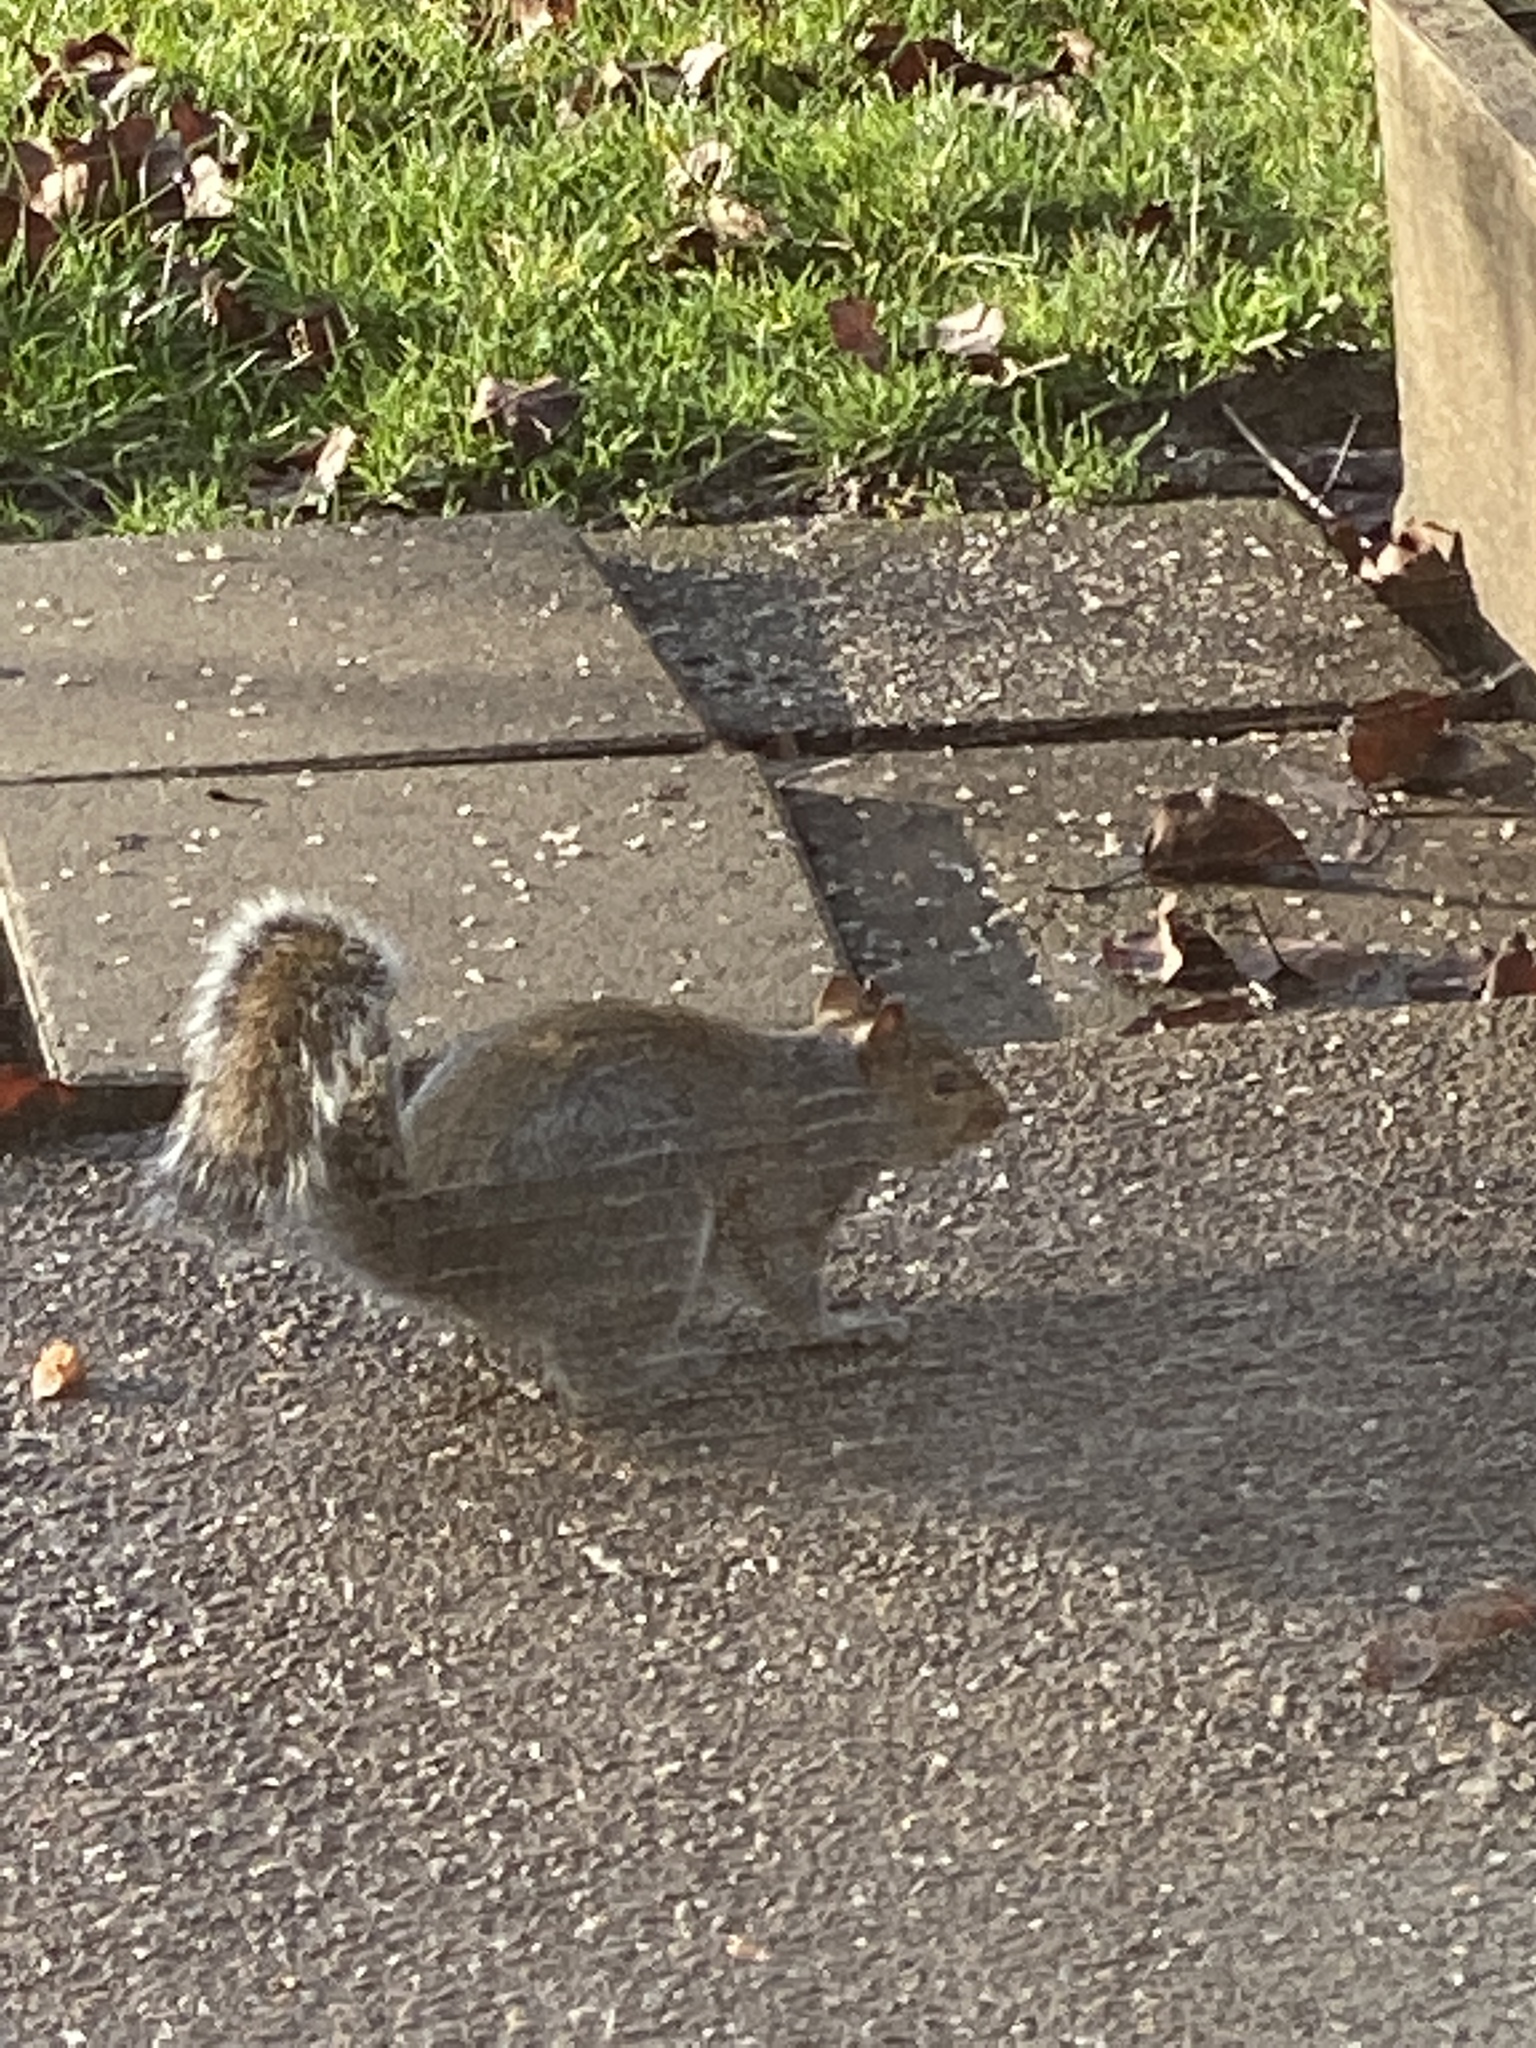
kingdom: Animalia
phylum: Chordata
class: Mammalia
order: Rodentia
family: Sciuridae
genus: Sciurus
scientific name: Sciurus carolinensis
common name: Eastern gray squirrel
